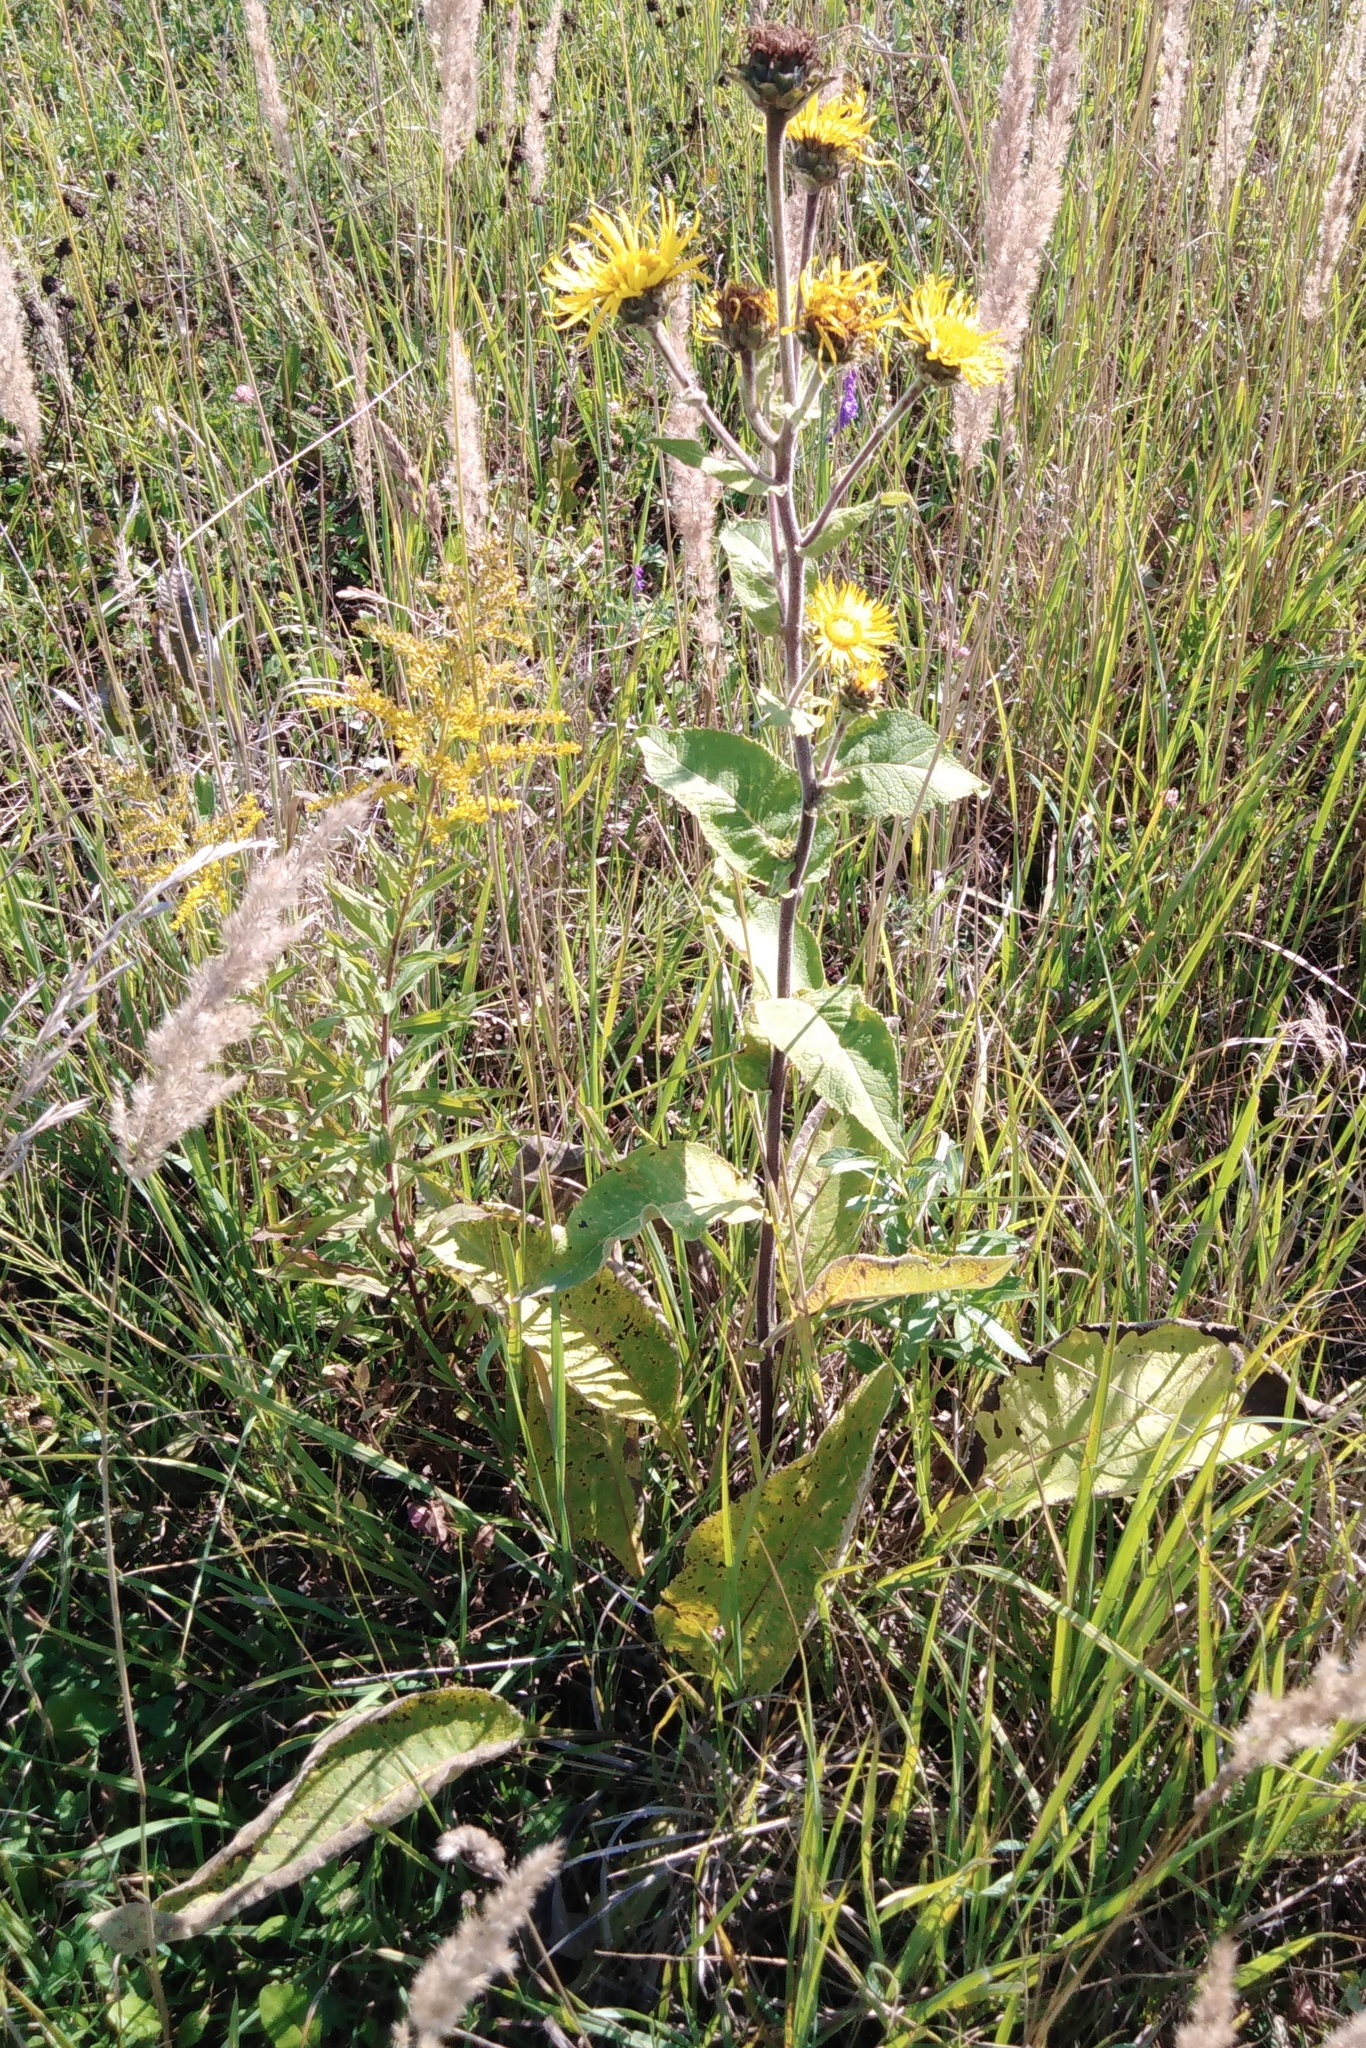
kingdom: Plantae
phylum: Tracheophyta
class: Magnoliopsida
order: Asterales
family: Asteraceae
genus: Inula
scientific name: Inula helenium
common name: Elecampane
